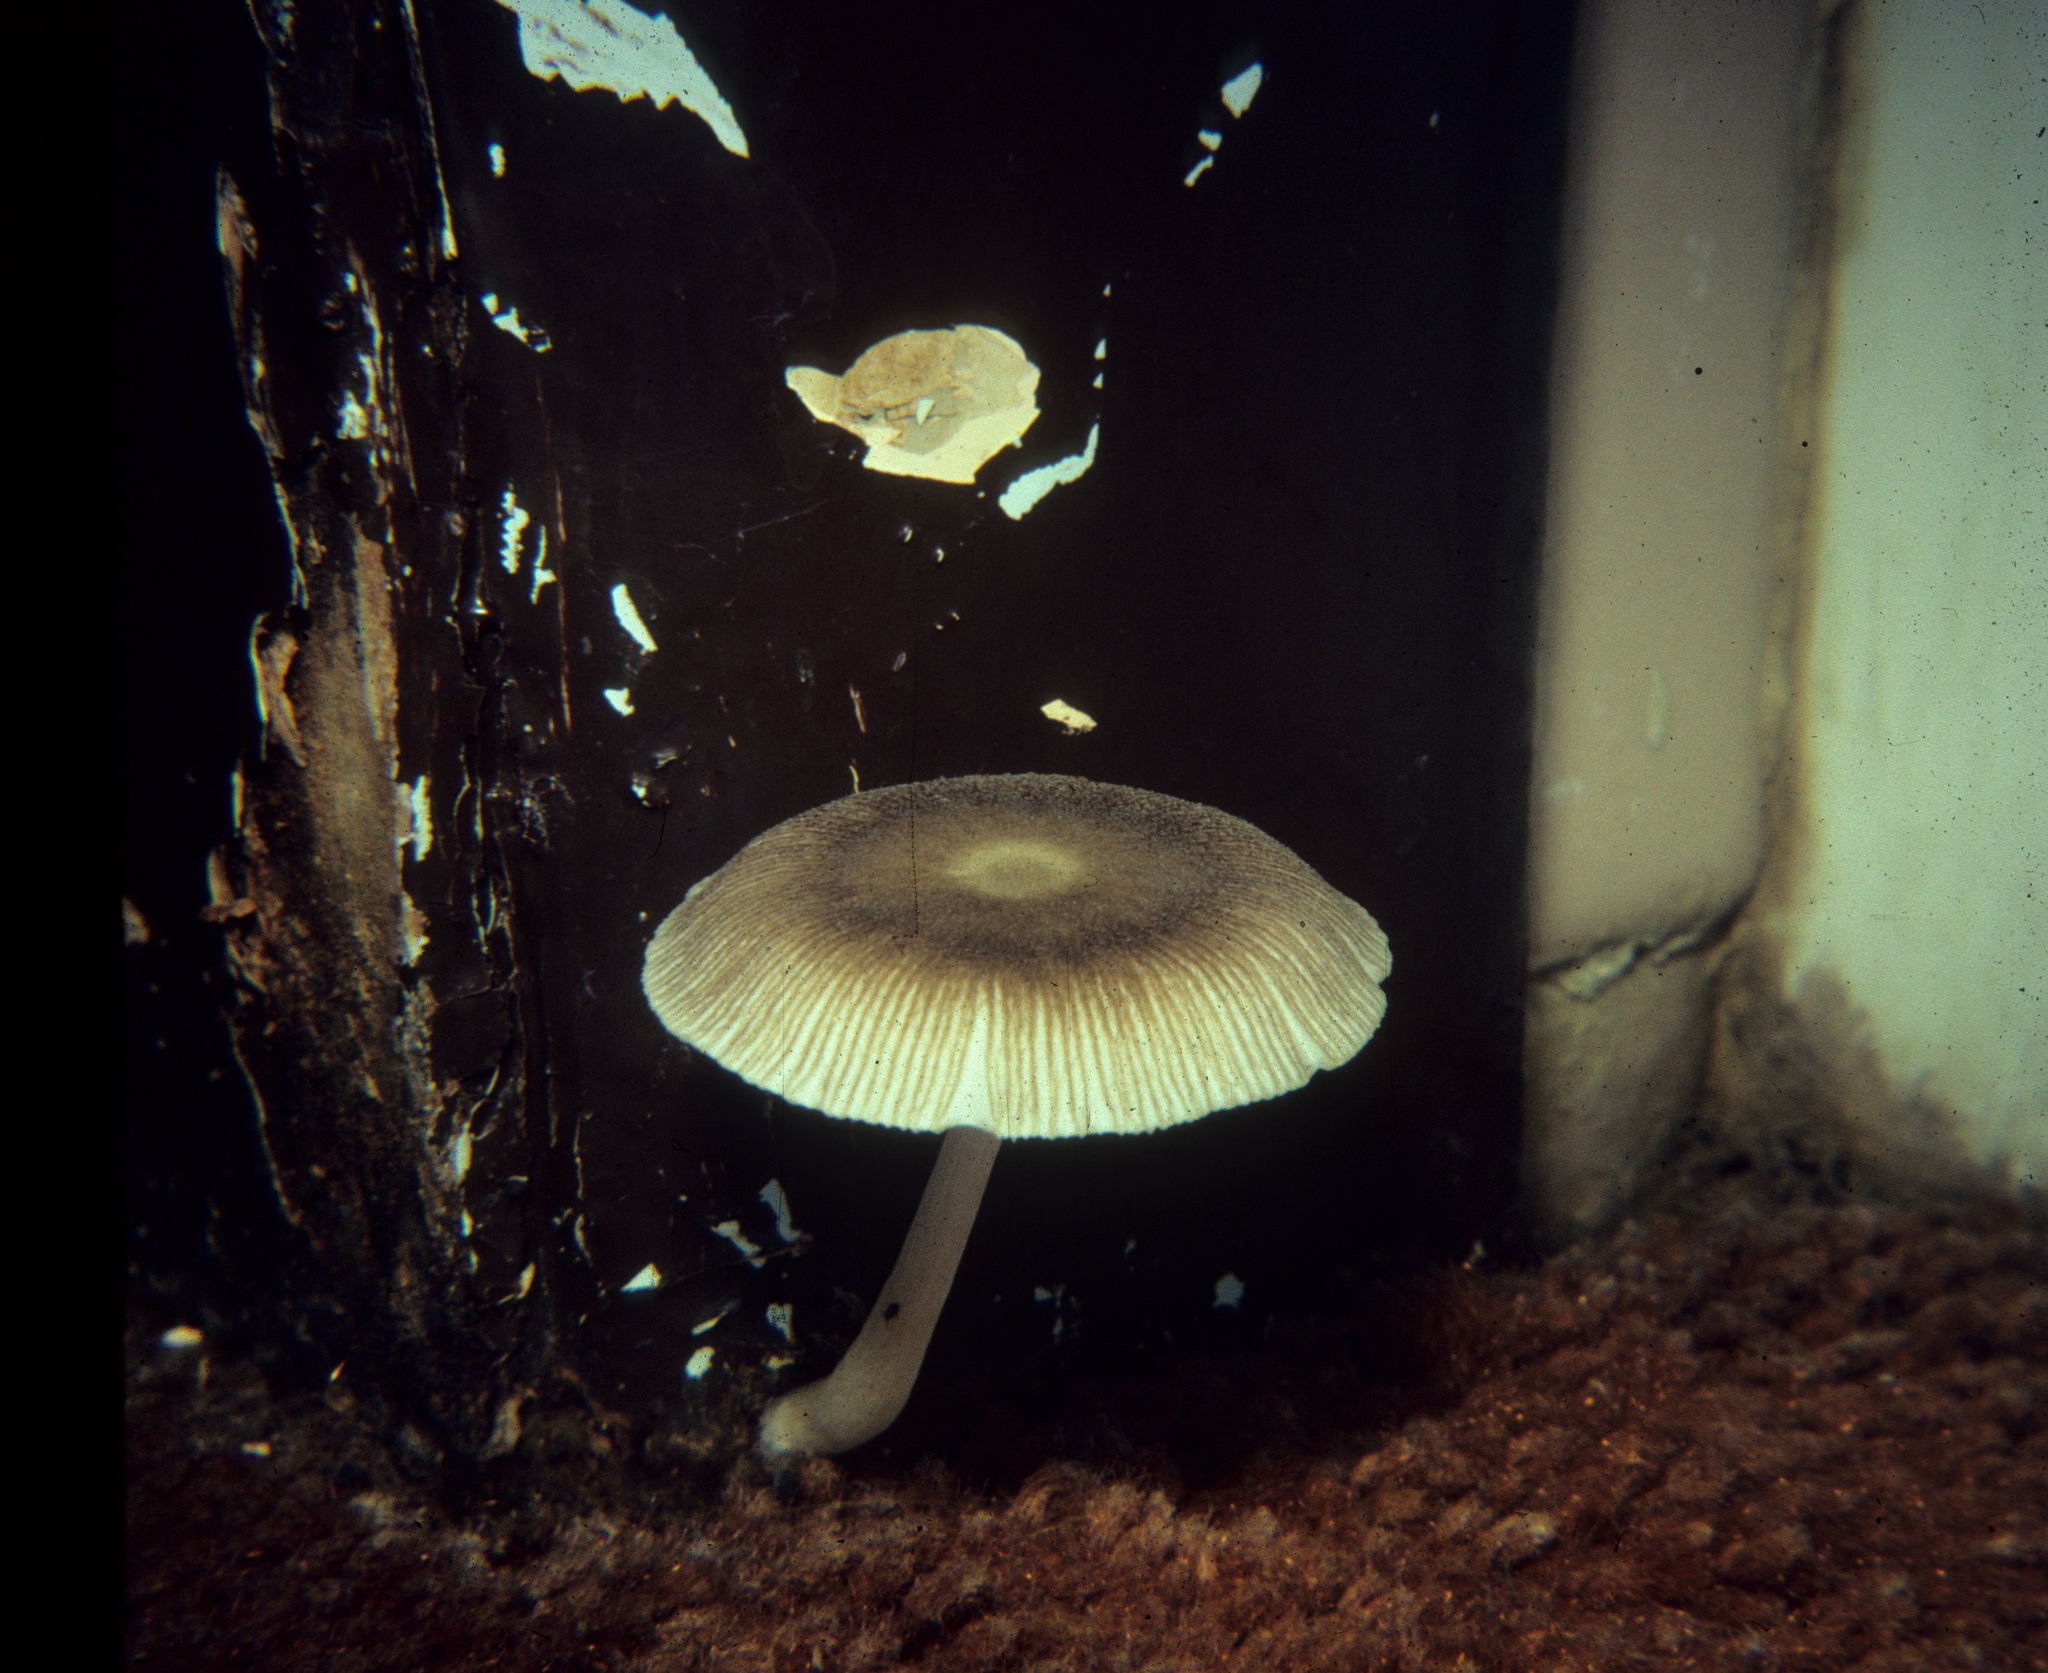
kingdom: Fungi
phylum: Basidiomycota
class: Agaricomycetes
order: Agaricales
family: Pluteaceae
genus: Pluteus
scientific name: Pluteus longistriatus
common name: Pleated pluteus
